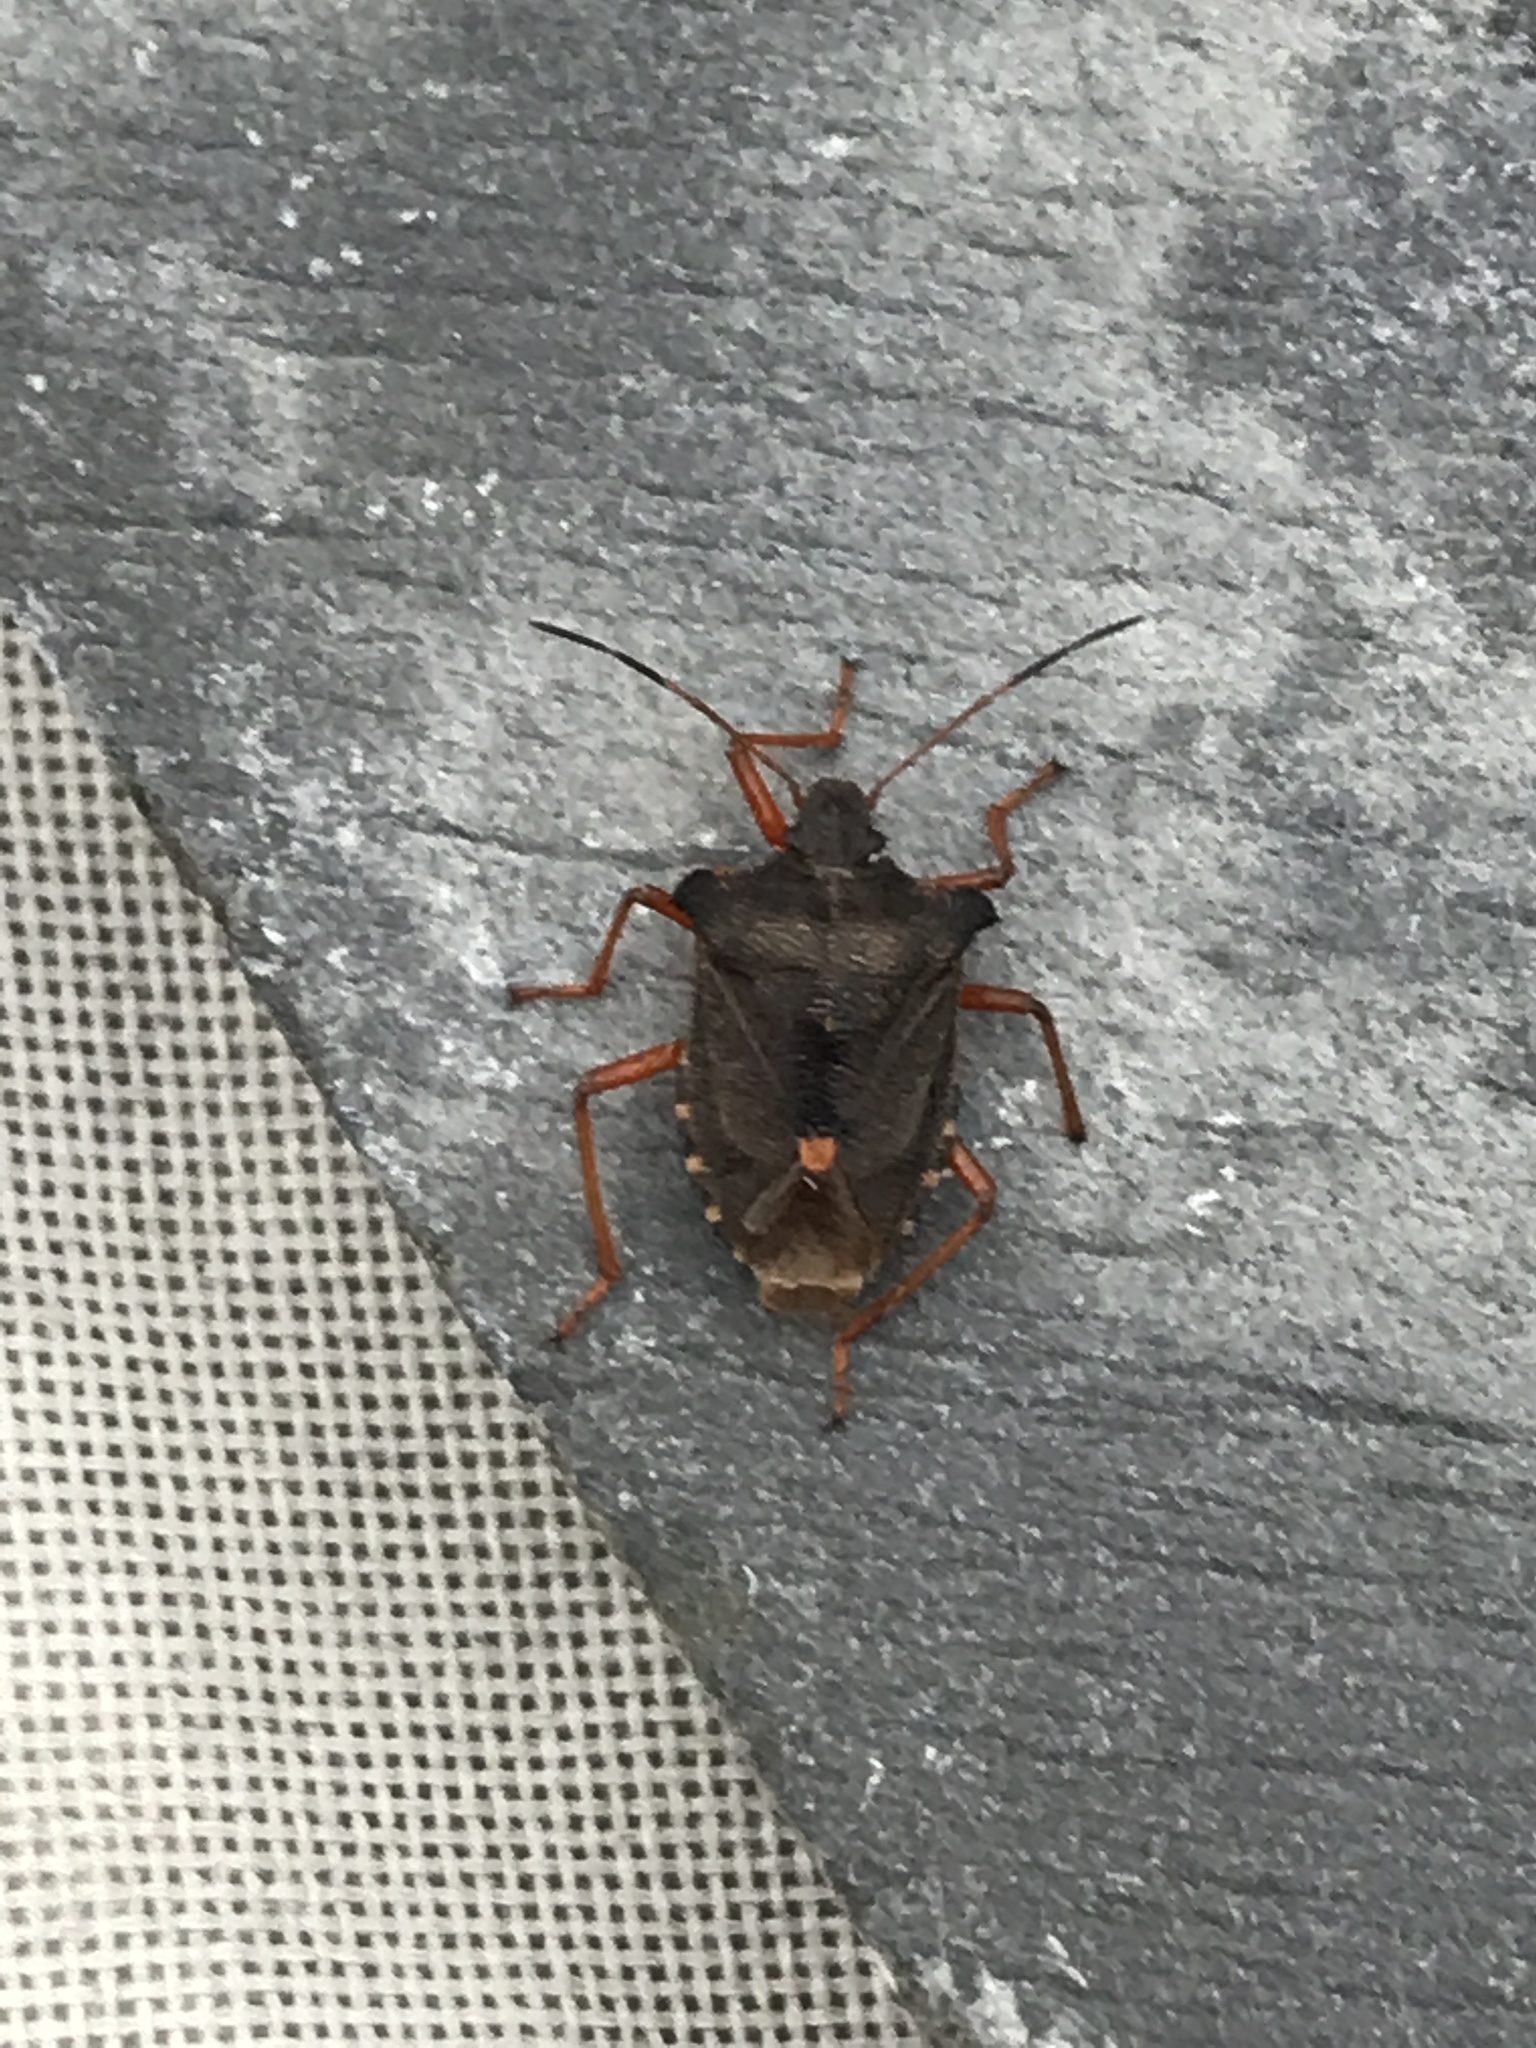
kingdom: Animalia
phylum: Arthropoda
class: Insecta
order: Hemiptera
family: Pentatomidae
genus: Pentatoma
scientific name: Pentatoma rufipes
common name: Forest bug
